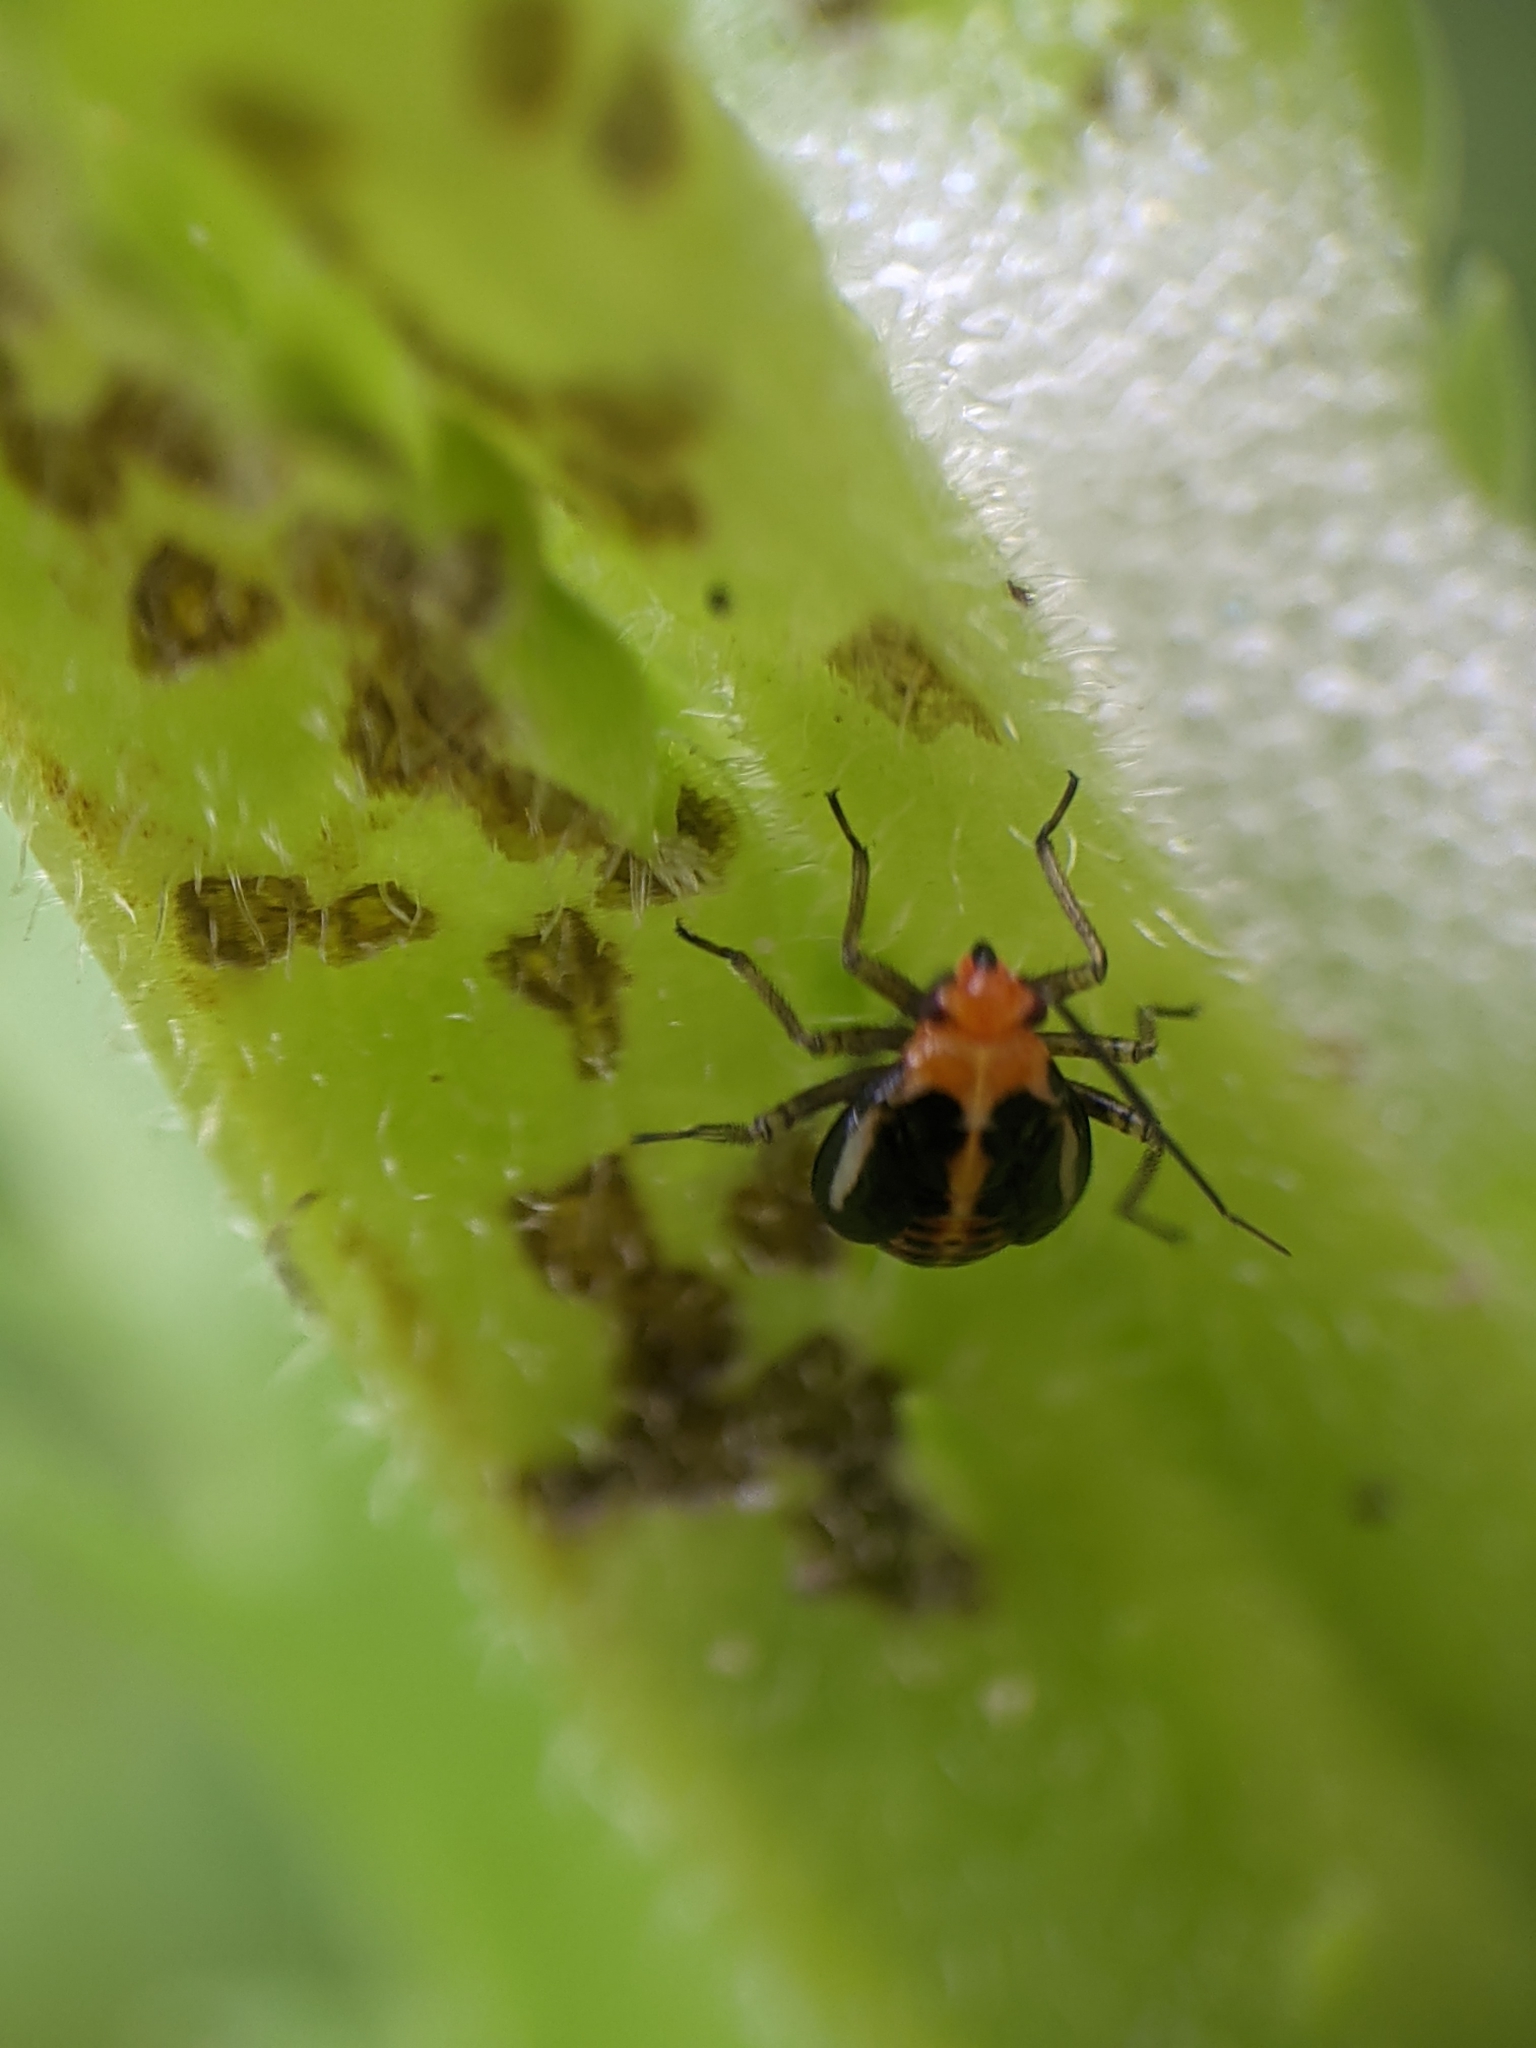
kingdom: Animalia
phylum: Arthropoda
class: Insecta
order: Hemiptera
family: Miridae
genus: Poecilocapsus
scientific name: Poecilocapsus lineatus
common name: Four-lined plant bug
